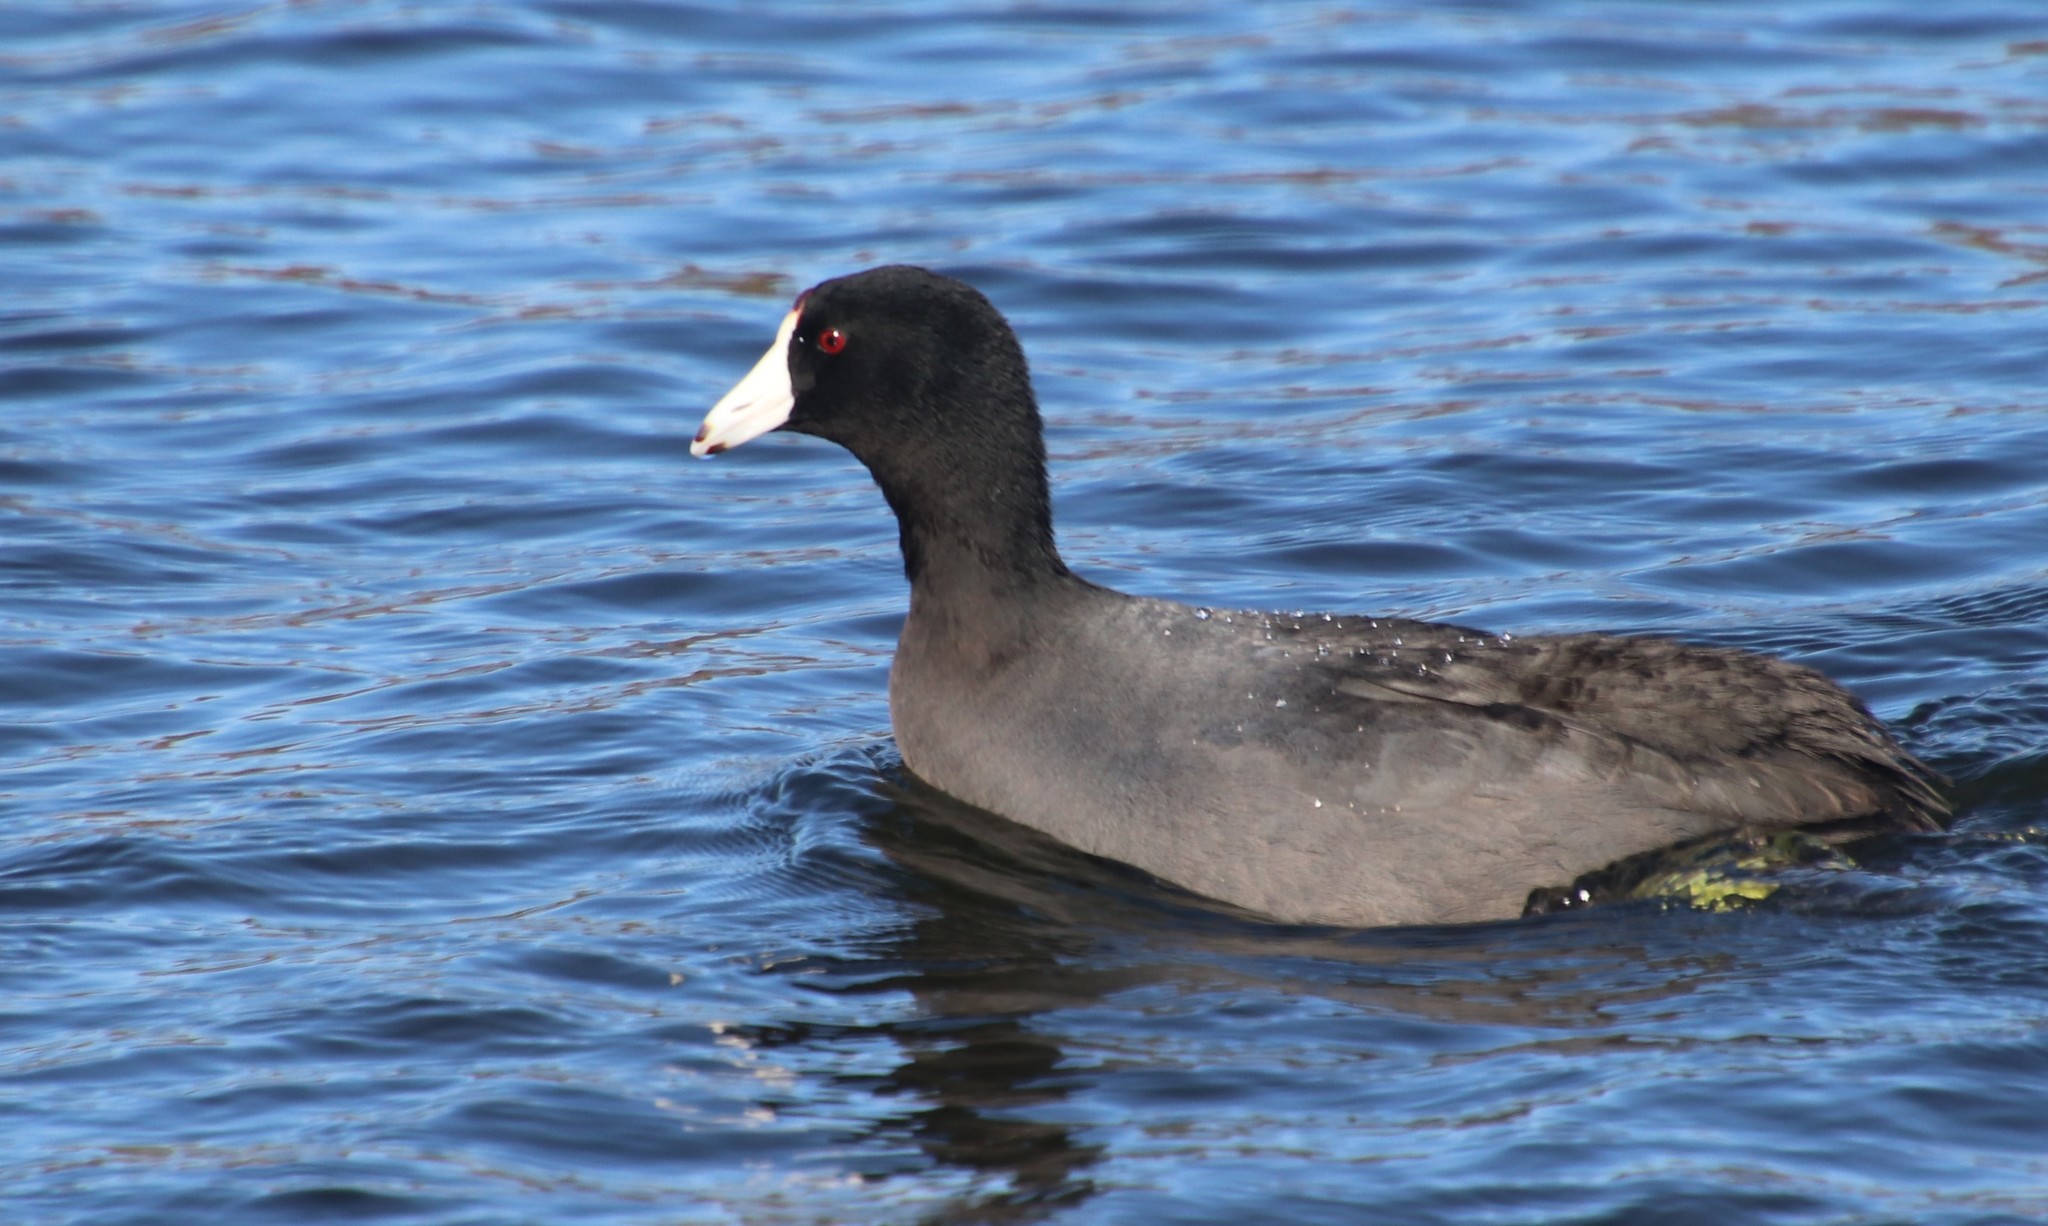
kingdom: Animalia
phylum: Chordata
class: Aves
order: Gruiformes
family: Rallidae
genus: Fulica
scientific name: Fulica americana
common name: American coot
